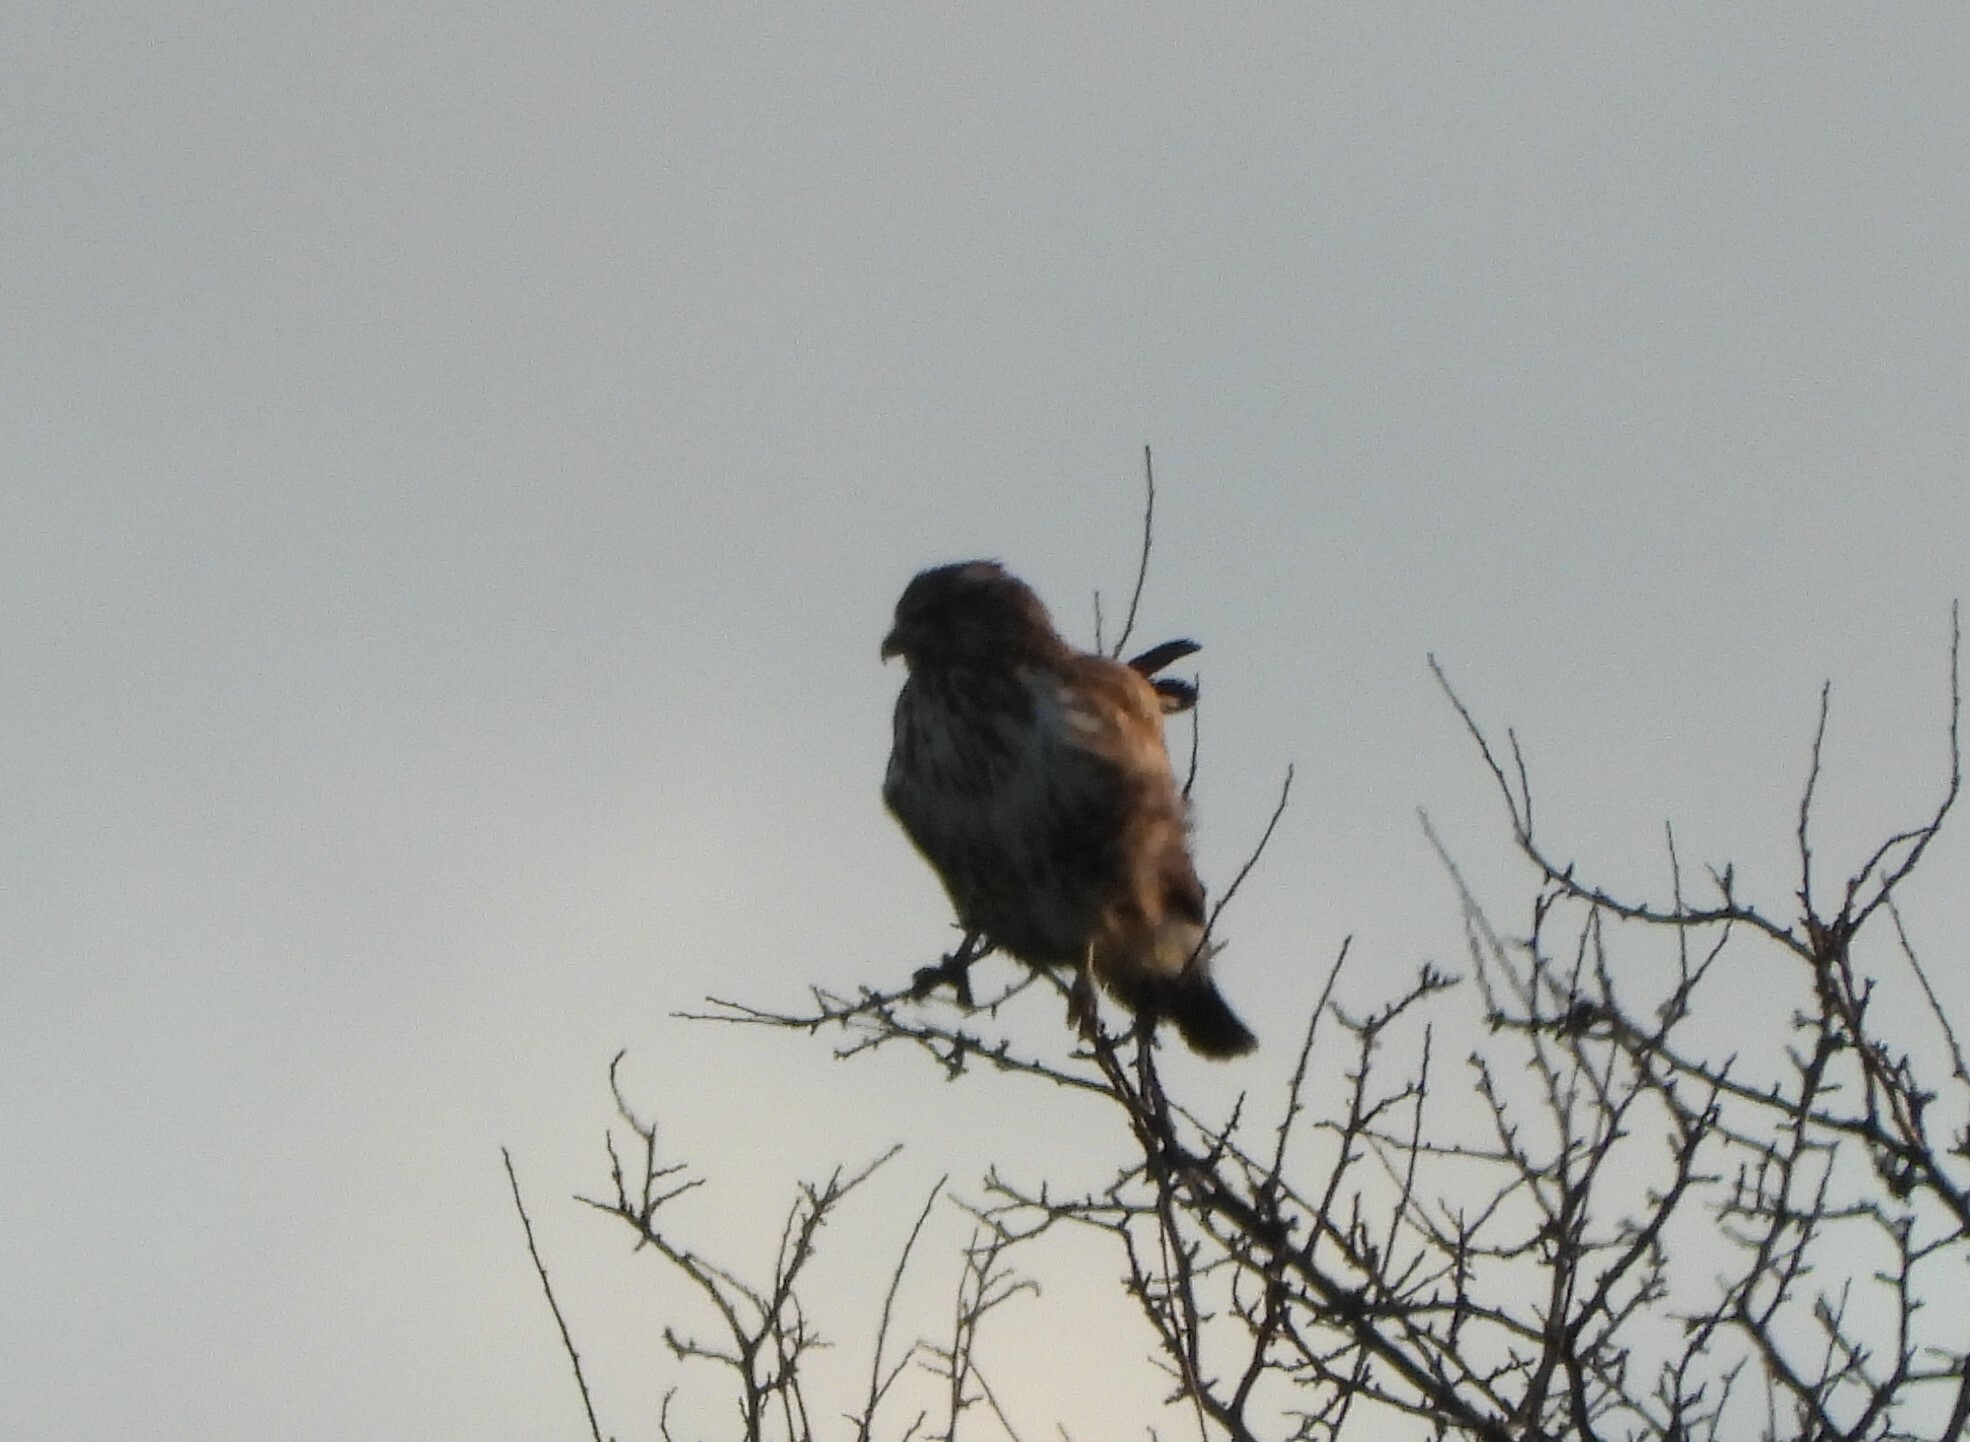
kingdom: Animalia
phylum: Chordata
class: Aves
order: Accipitriformes
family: Accipitridae
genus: Buteo
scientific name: Buteo buteo
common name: Common buzzard
